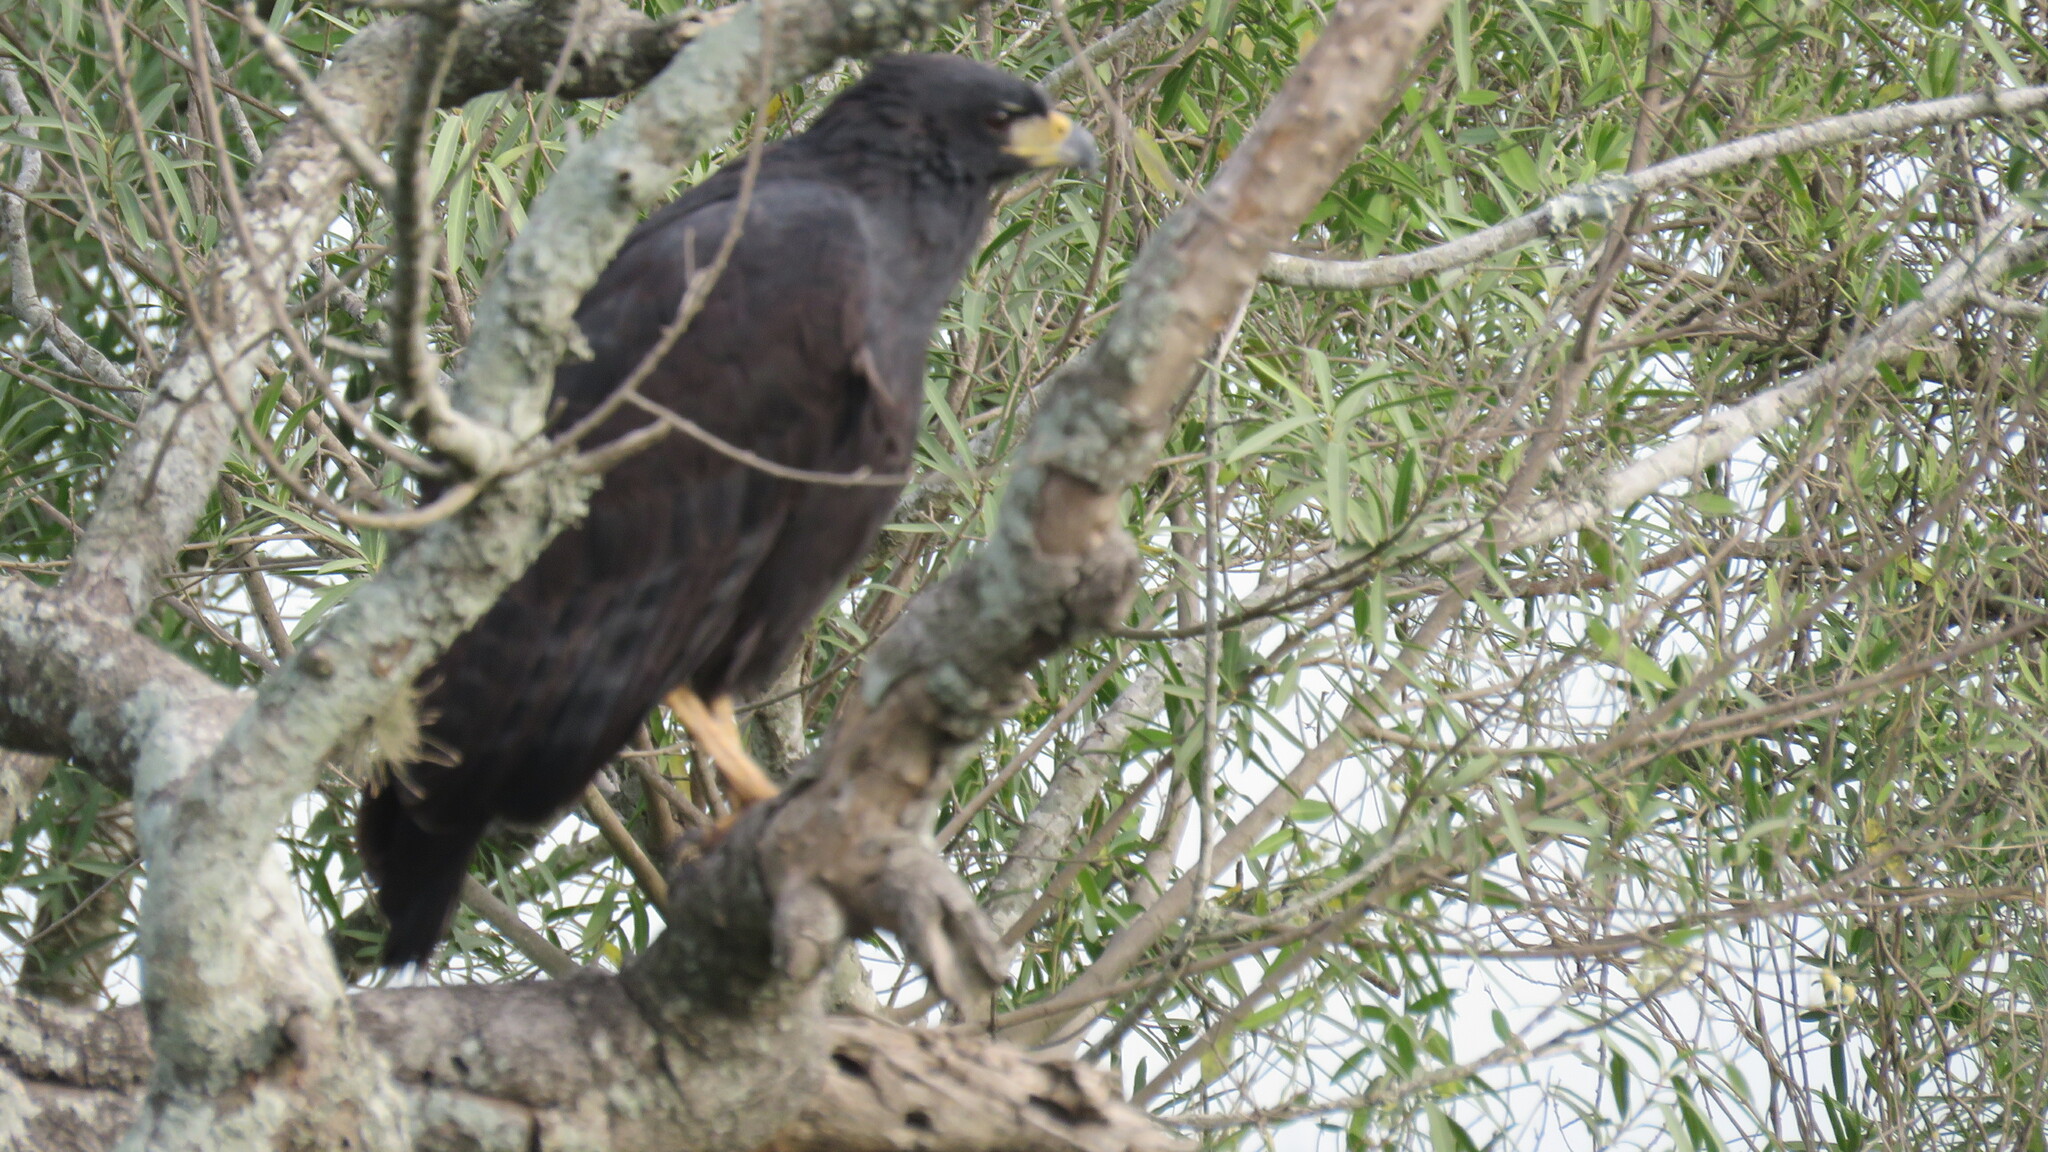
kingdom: Animalia
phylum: Chordata
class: Aves
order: Accipitriformes
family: Accipitridae
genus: Buteogallus
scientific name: Buteogallus urubitinga
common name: Great black hawk
